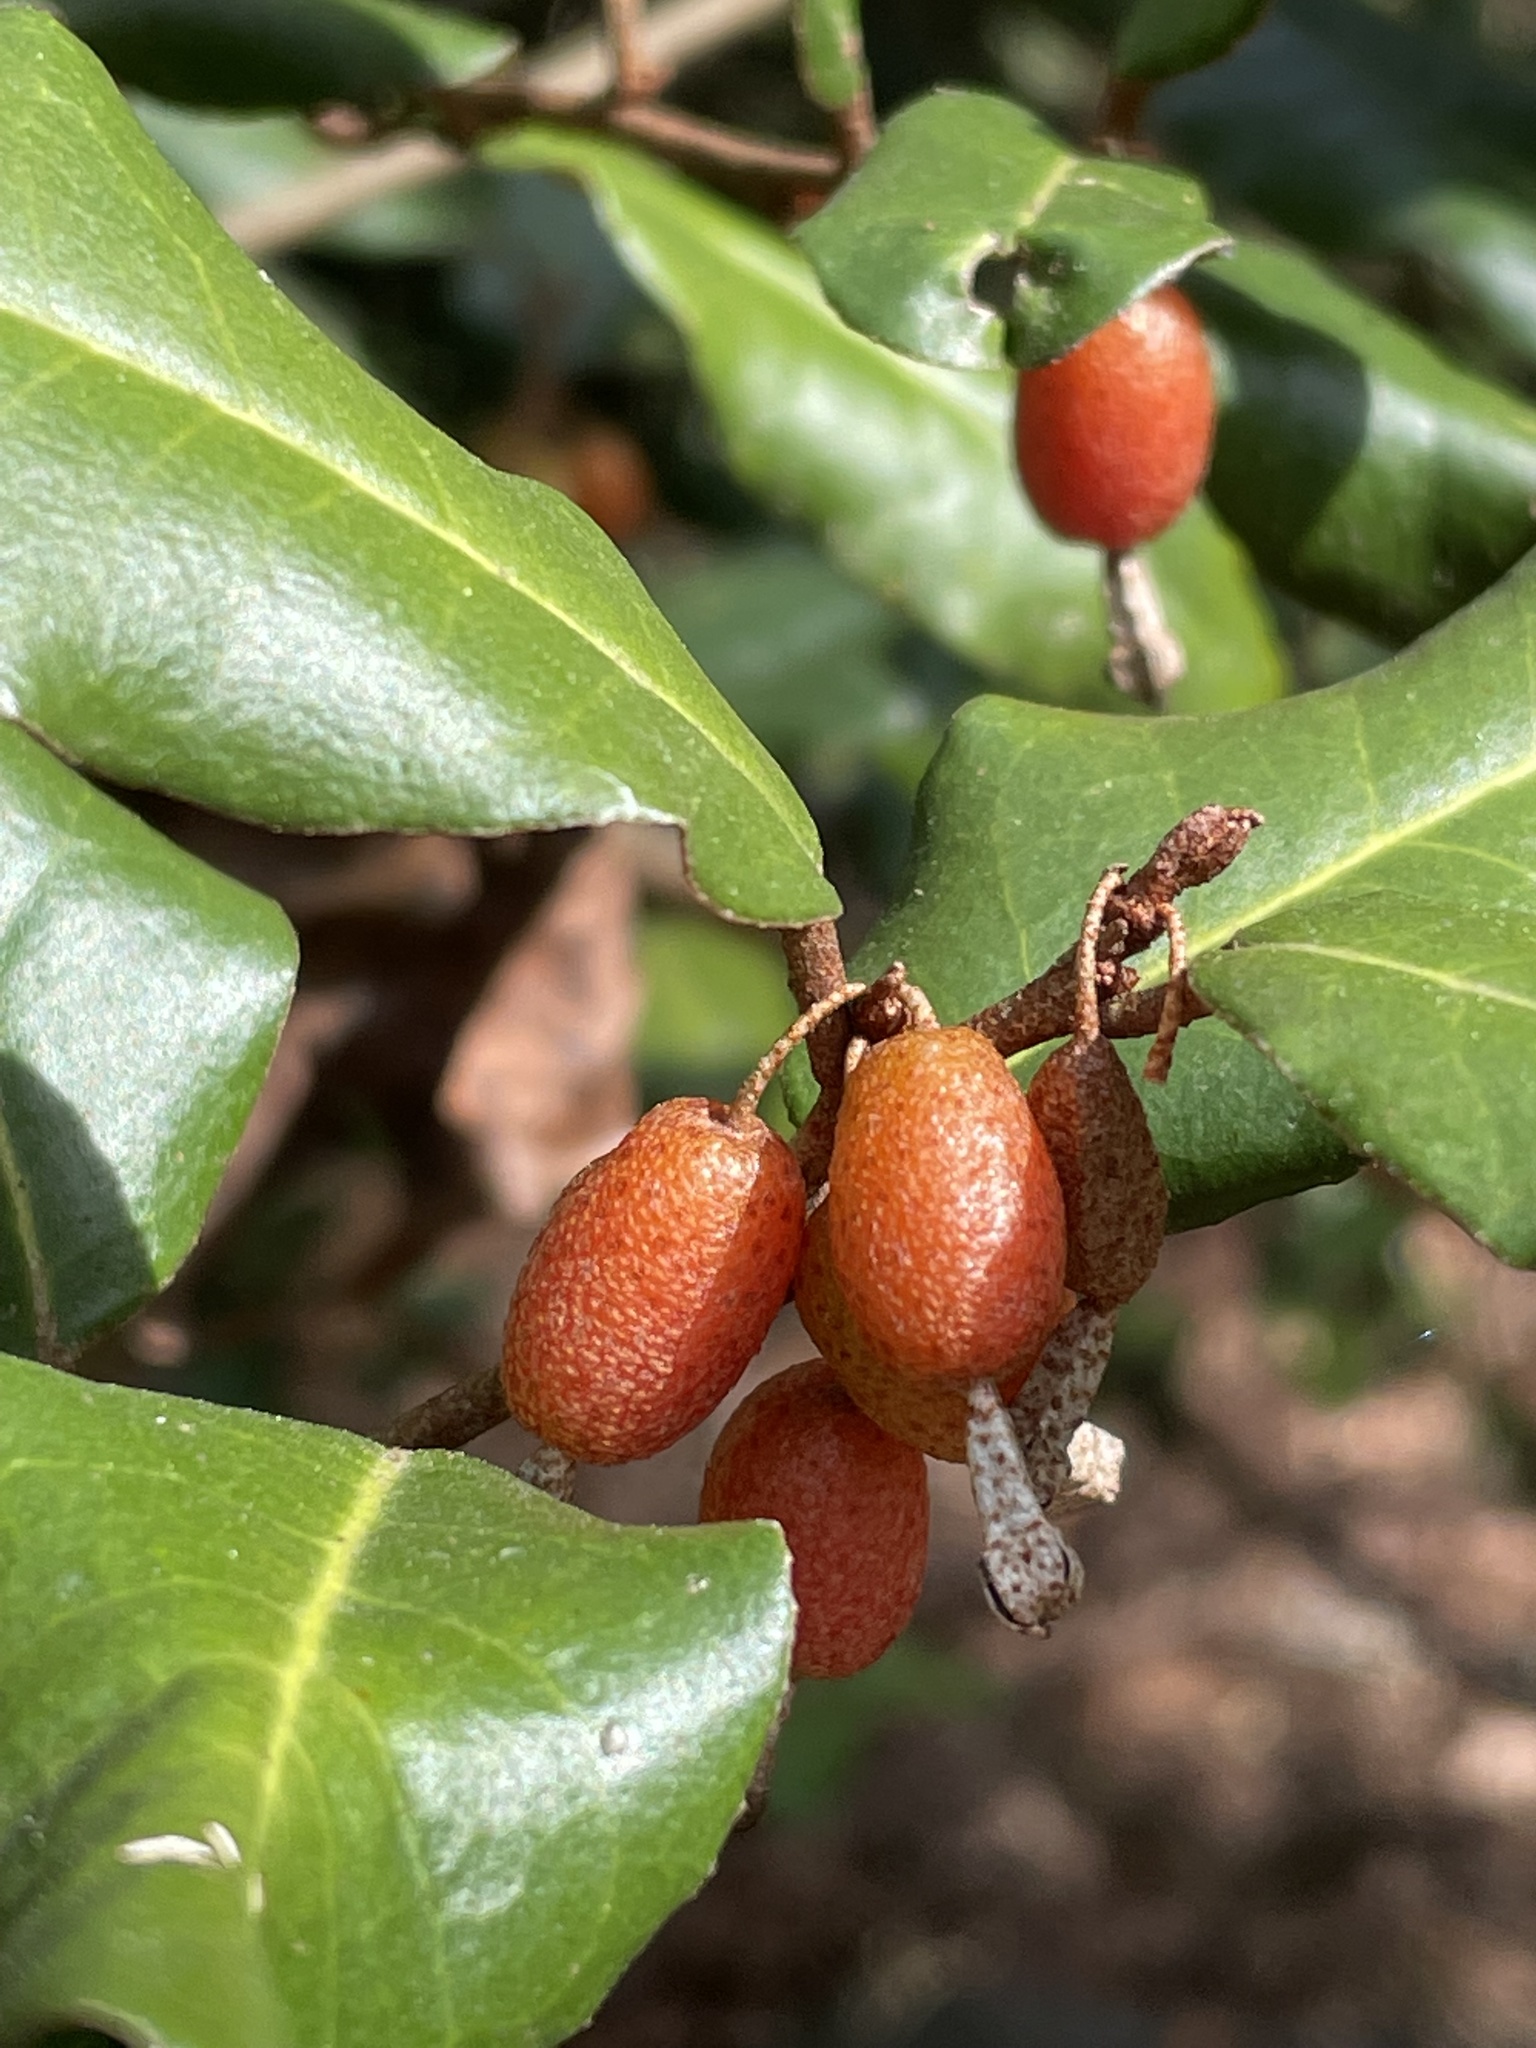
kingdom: Plantae
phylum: Tracheophyta
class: Magnoliopsida
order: Rosales
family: Elaeagnaceae
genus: Elaeagnus
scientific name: Elaeagnus pungens
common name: Spiny oleaster
